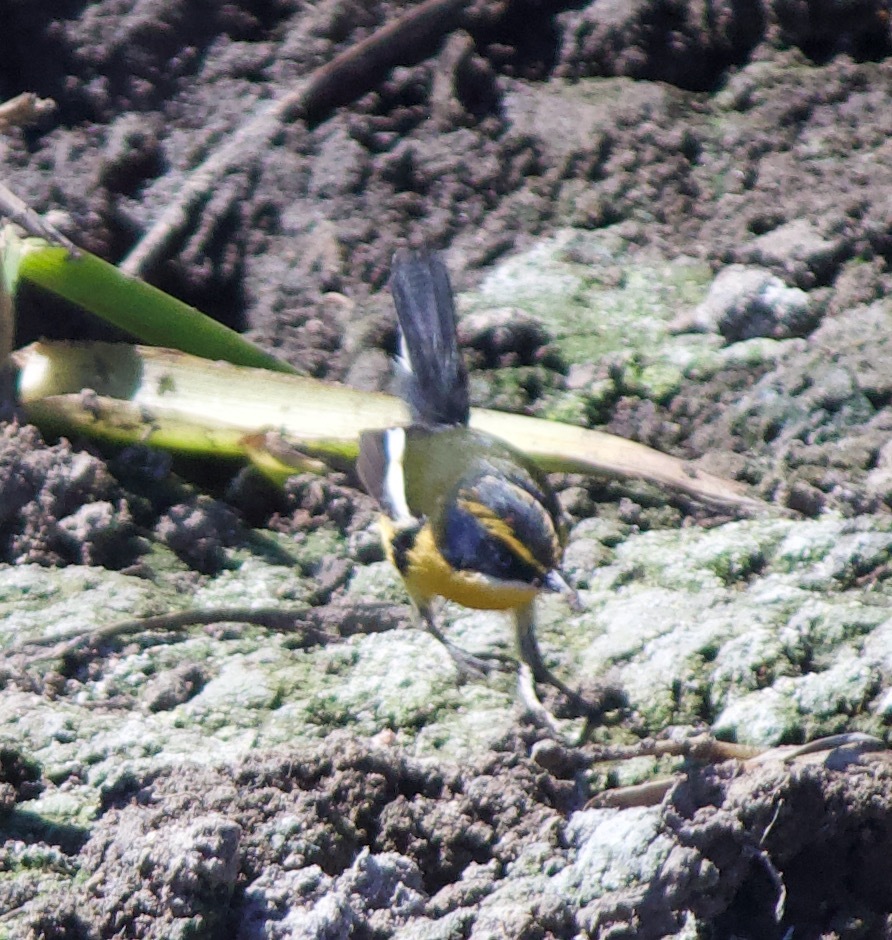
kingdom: Animalia
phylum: Chordata
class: Aves
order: Passeriformes
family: Tyrannidae
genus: Tachuris
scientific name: Tachuris rubrigastra
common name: Many-colored rush tyrant
